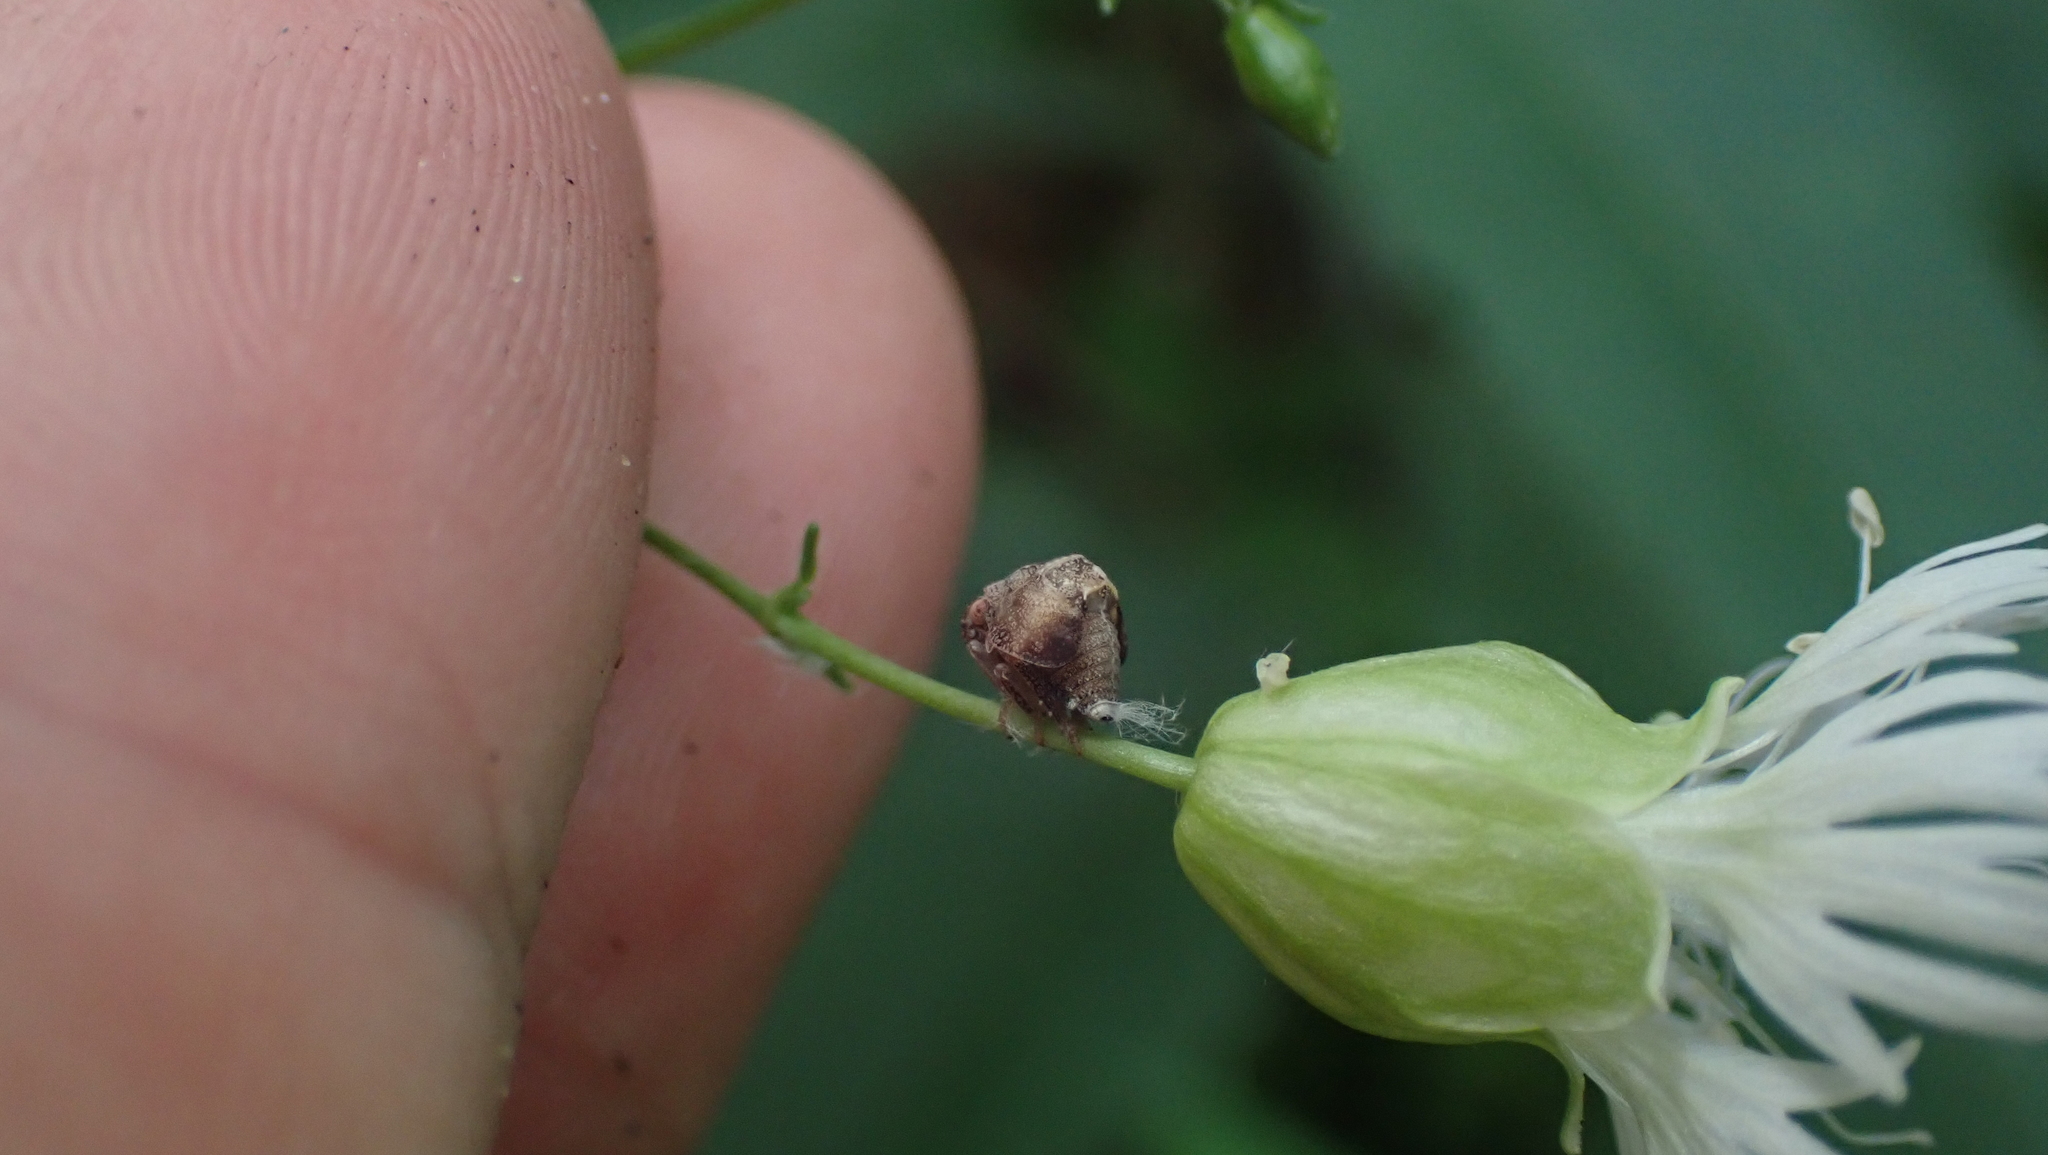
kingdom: Plantae
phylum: Tracheophyta
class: Magnoliopsida
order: Caryophyllales
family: Caryophyllaceae
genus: Silene
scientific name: Silene stellata
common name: Starry campion
